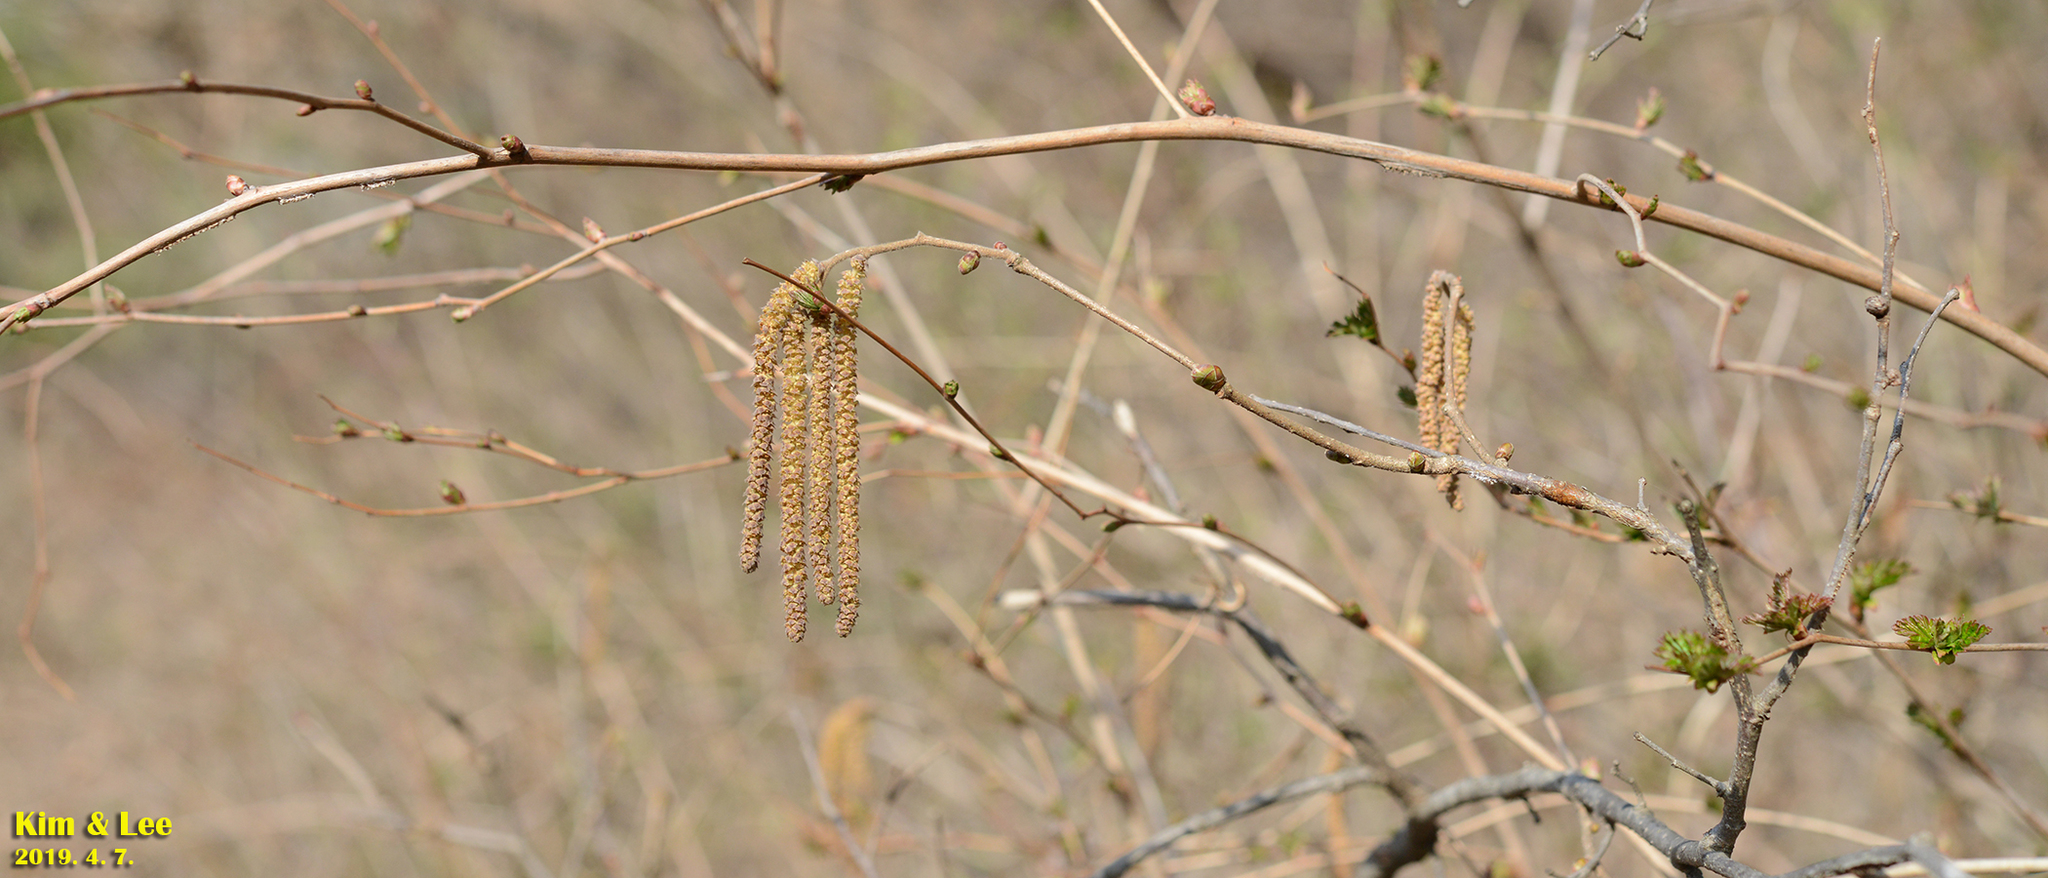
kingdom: Plantae
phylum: Tracheophyta
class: Magnoliopsida
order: Fagales
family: Betulaceae
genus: Corylus
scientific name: Corylus heterophylla
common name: Siberian hazelnut
